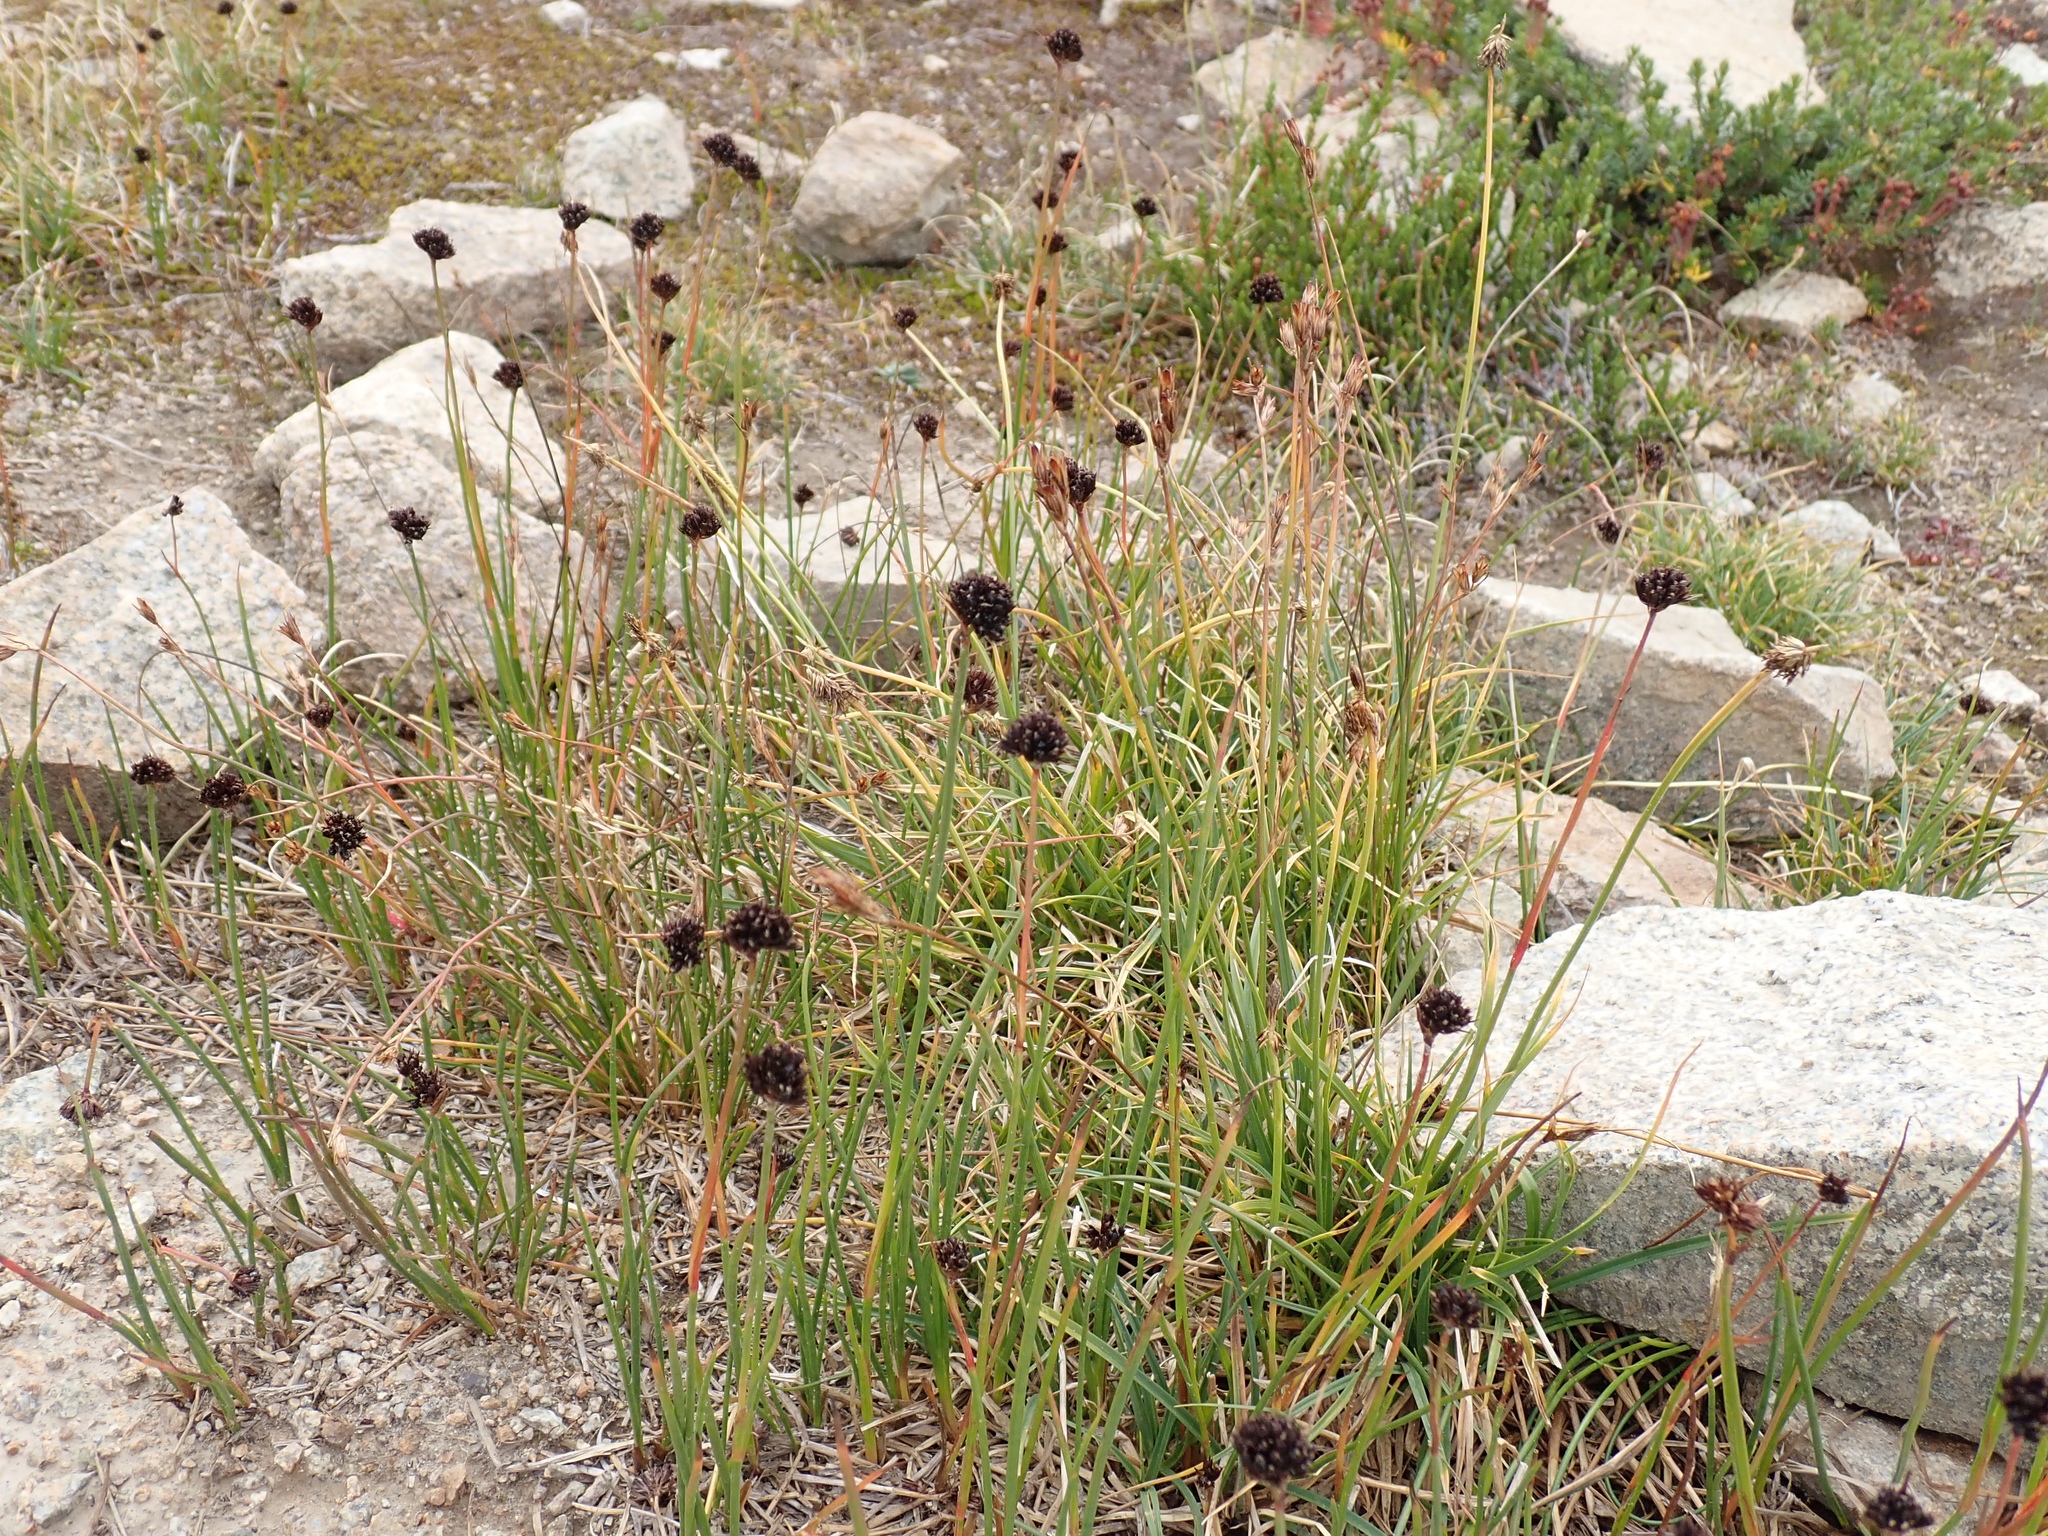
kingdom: Plantae
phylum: Tracheophyta
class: Liliopsida
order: Poales
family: Juncaceae
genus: Juncus
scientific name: Juncus mertensianus
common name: Merten's rush
